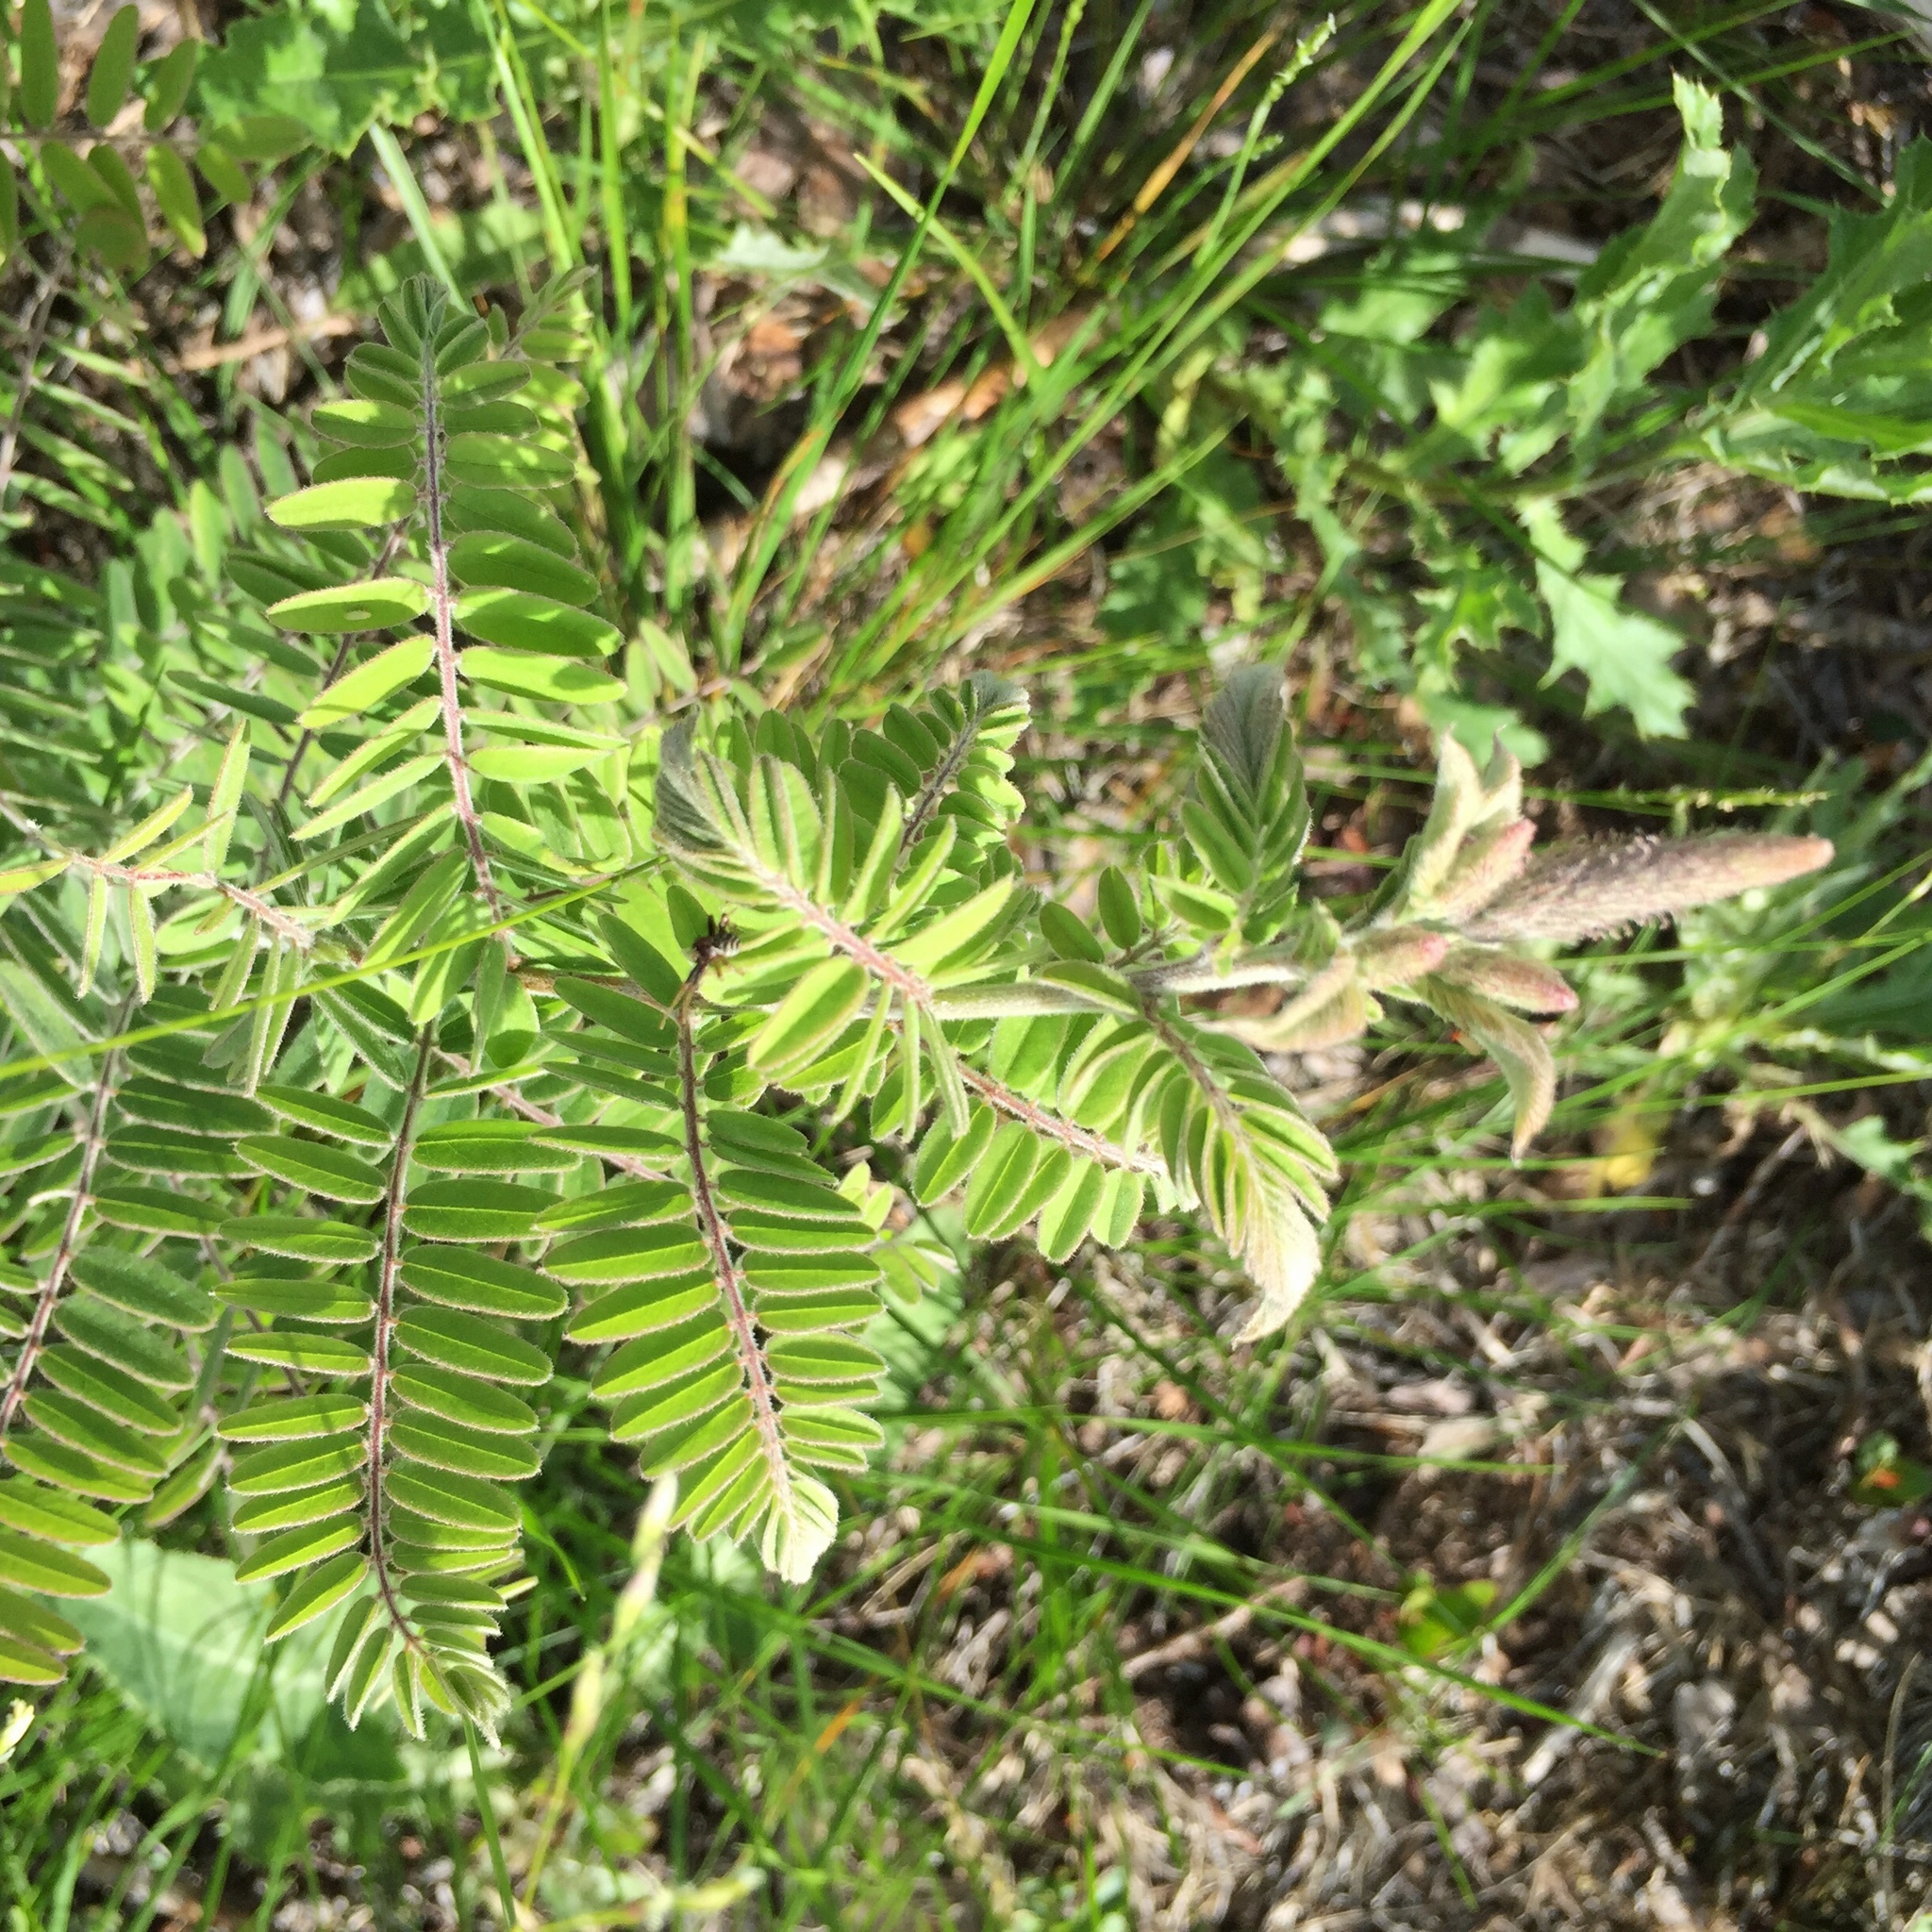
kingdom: Plantae
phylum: Tracheophyta
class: Magnoliopsida
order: Fabales
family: Fabaceae
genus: Amorpha
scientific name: Amorpha canescens
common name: Leadplant
